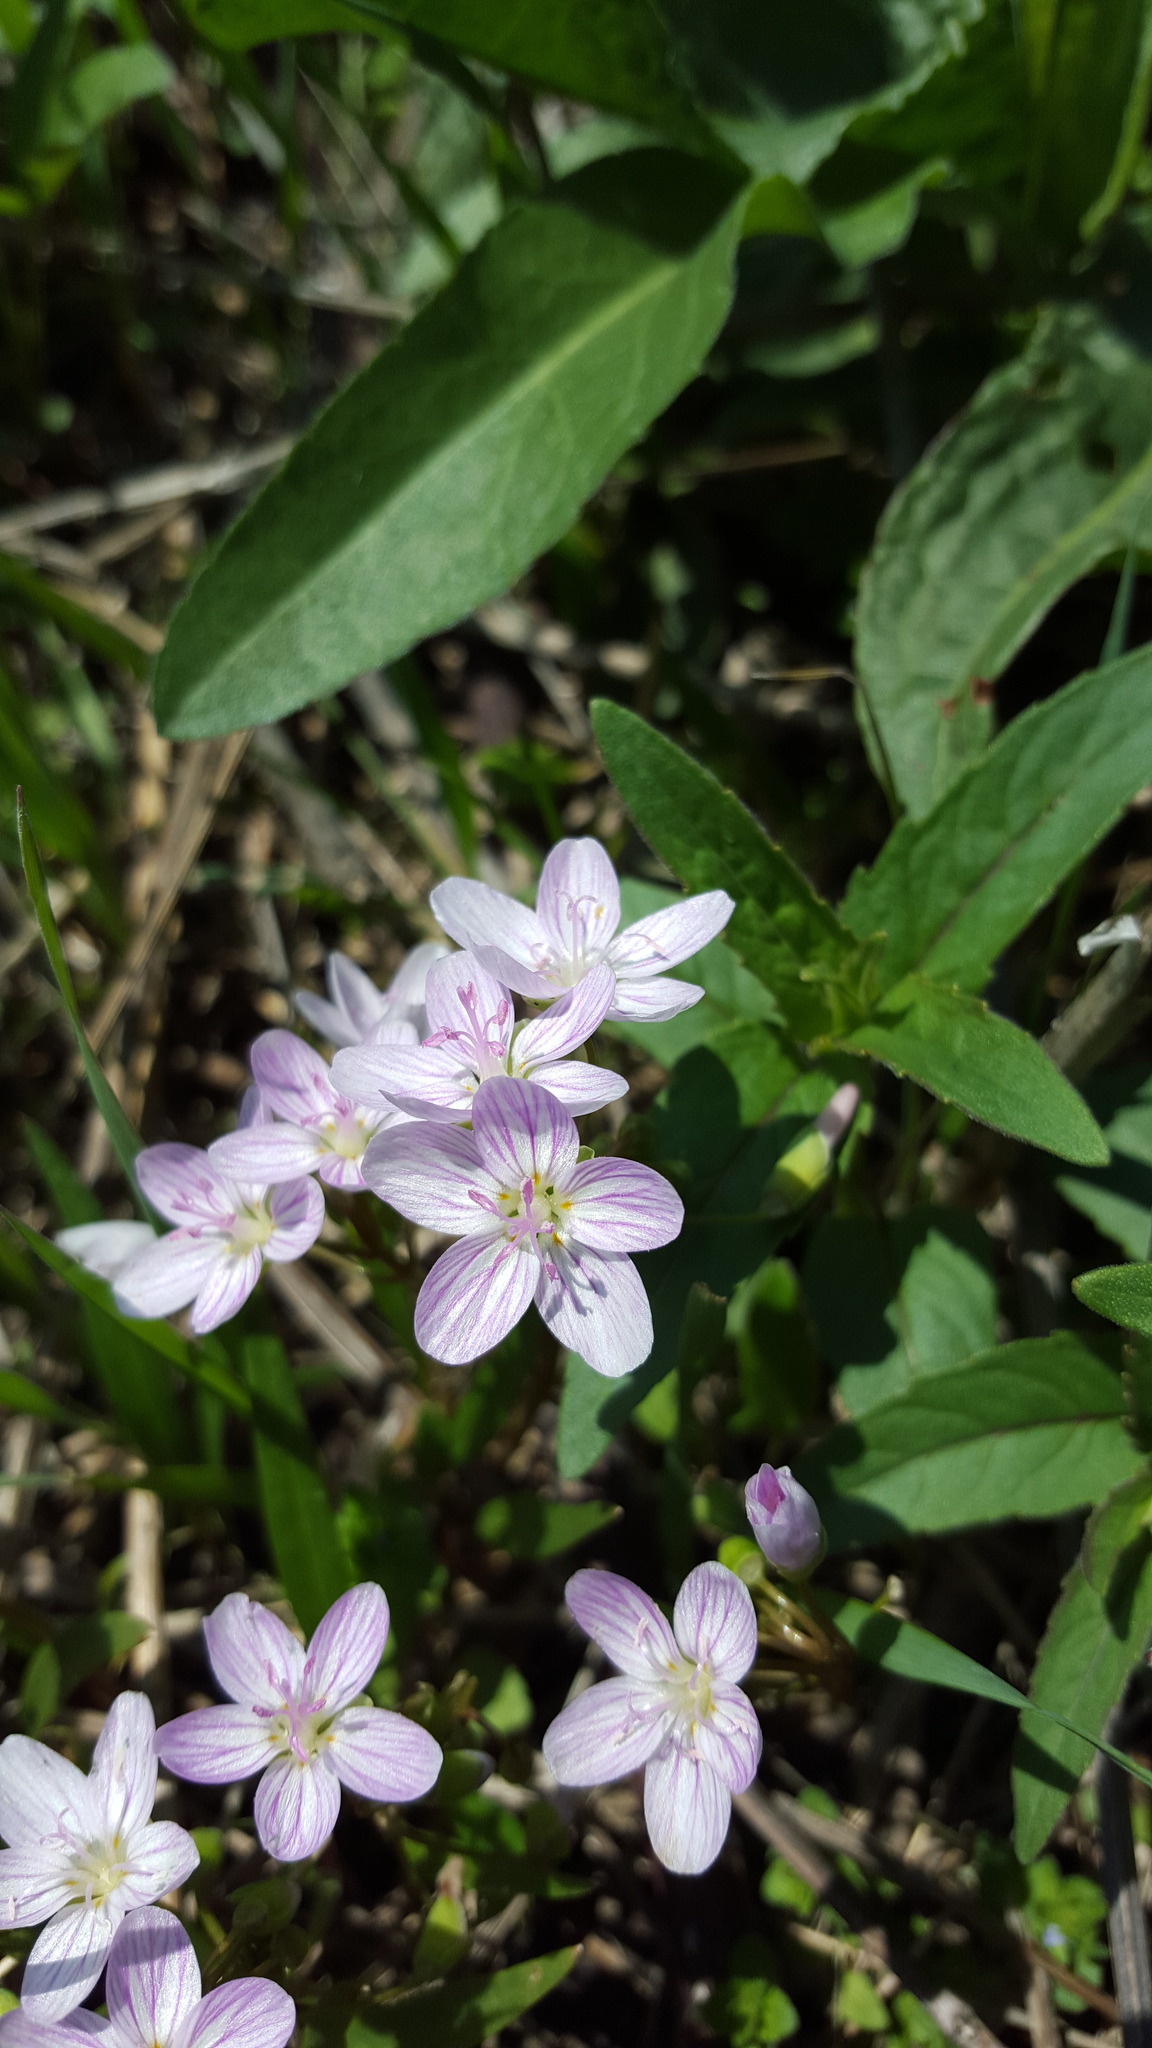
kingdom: Plantae
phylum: Tracheophyta
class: Magnoliopsida
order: Caryophyllales
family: Montiaceae
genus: Claytonia
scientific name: Claytonia virginica
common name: Virginia springbeauty
